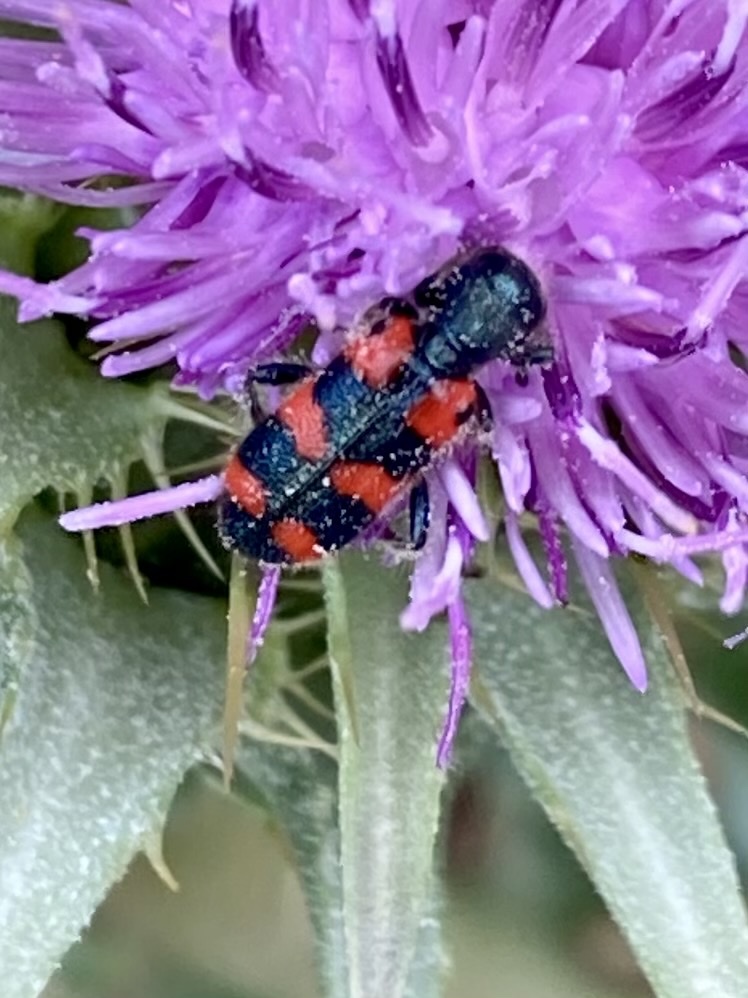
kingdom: Animalia
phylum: Arthropoda
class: Insecta
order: Coleoptera
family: Cleridae
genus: Trichodes
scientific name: Trichodes leucopsideus
